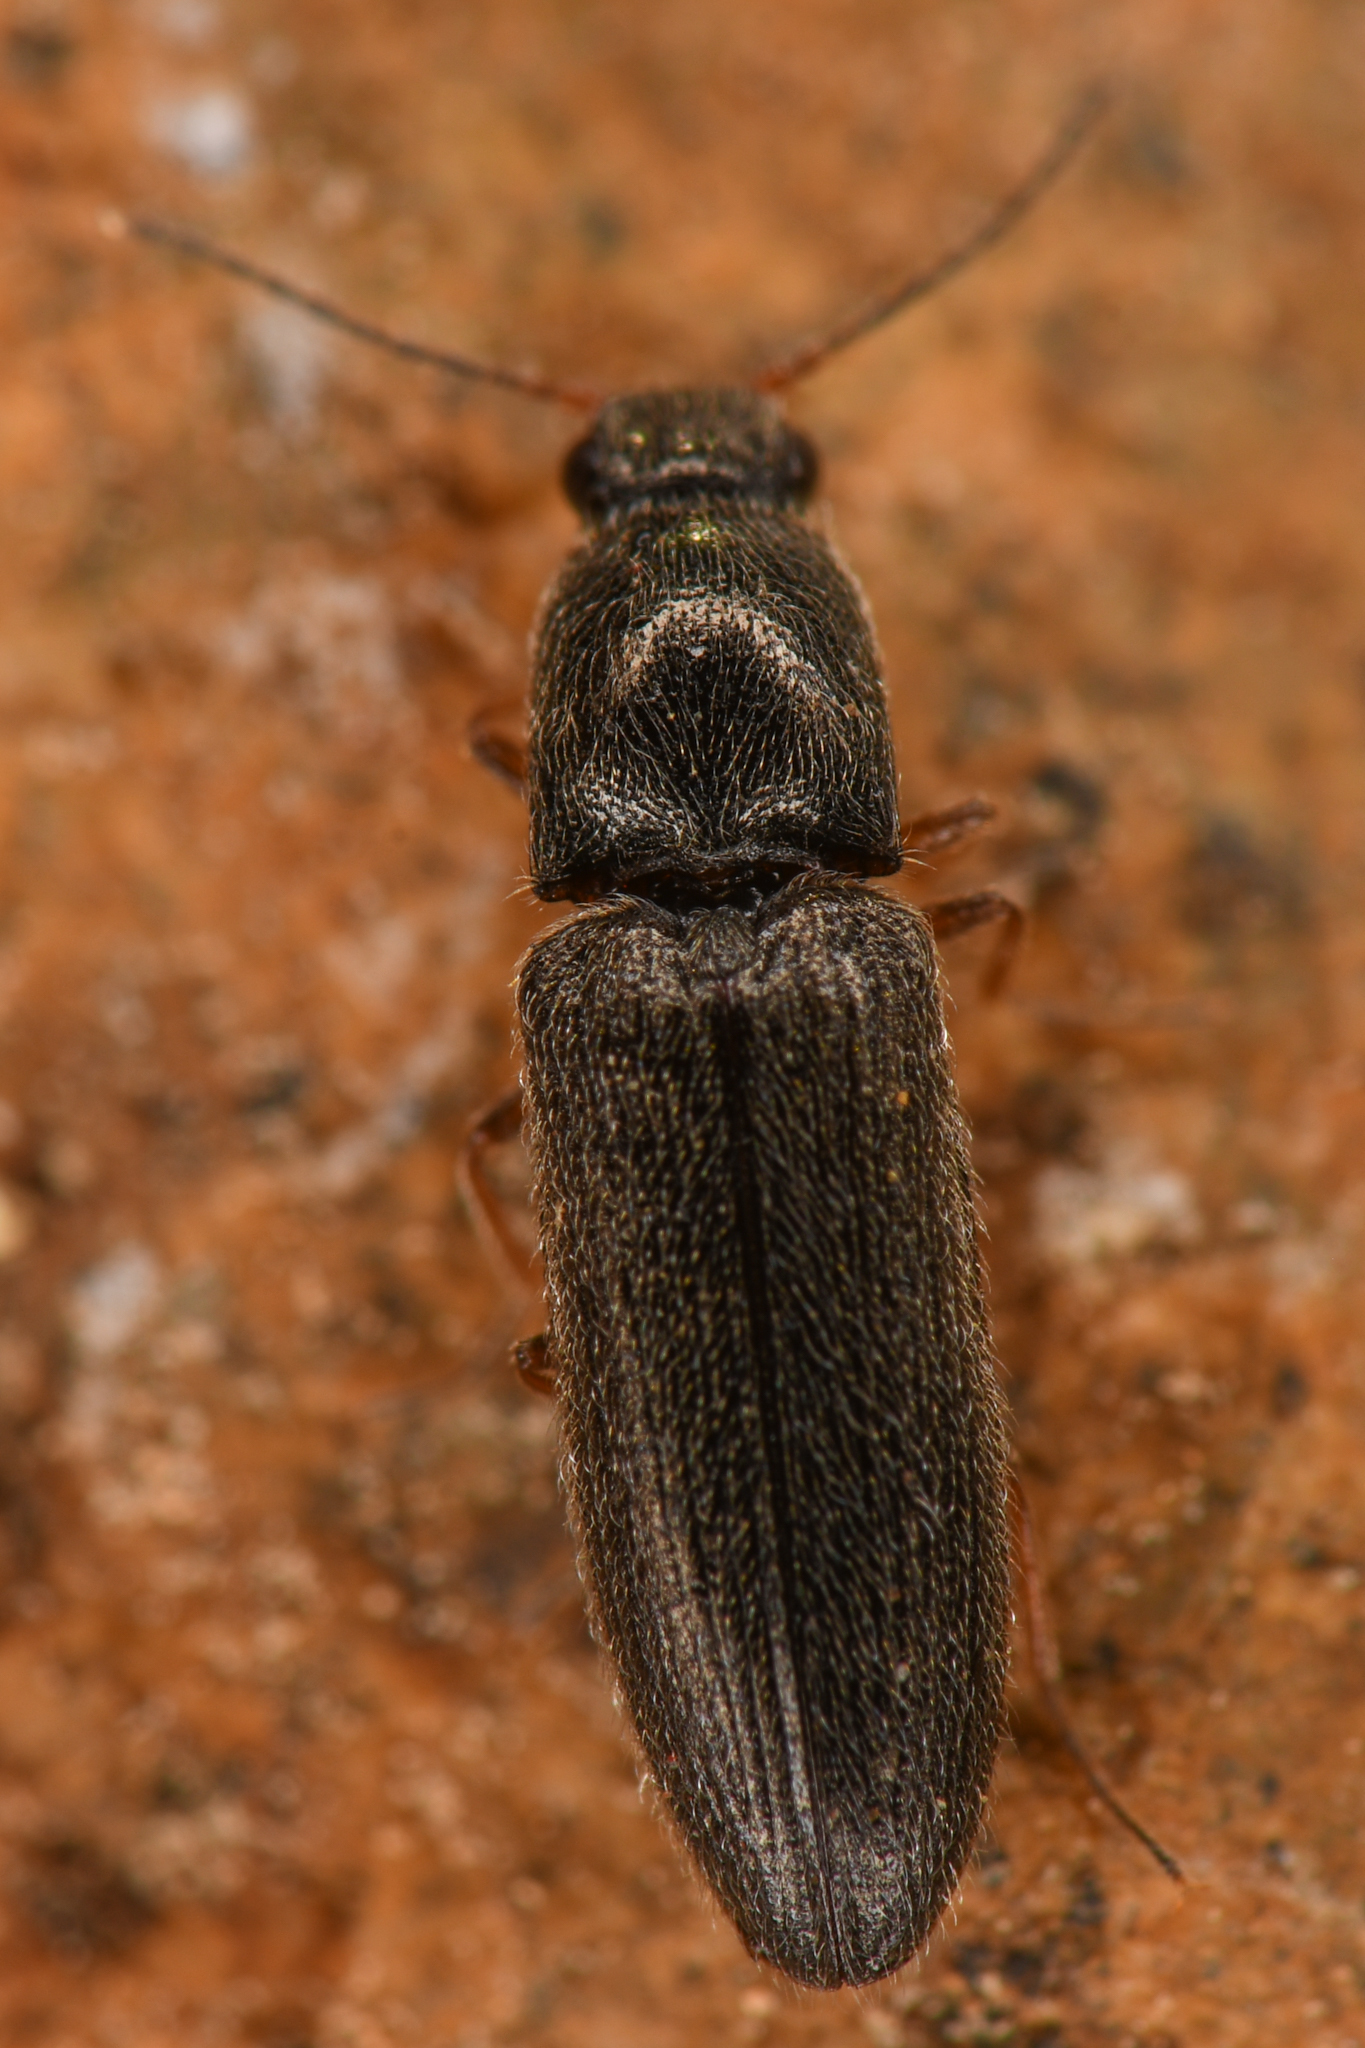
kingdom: Animalia
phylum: Arthropoda
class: Insecta
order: Coleoptera
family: Elateridae
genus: Limonius
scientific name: Limonius aeger
